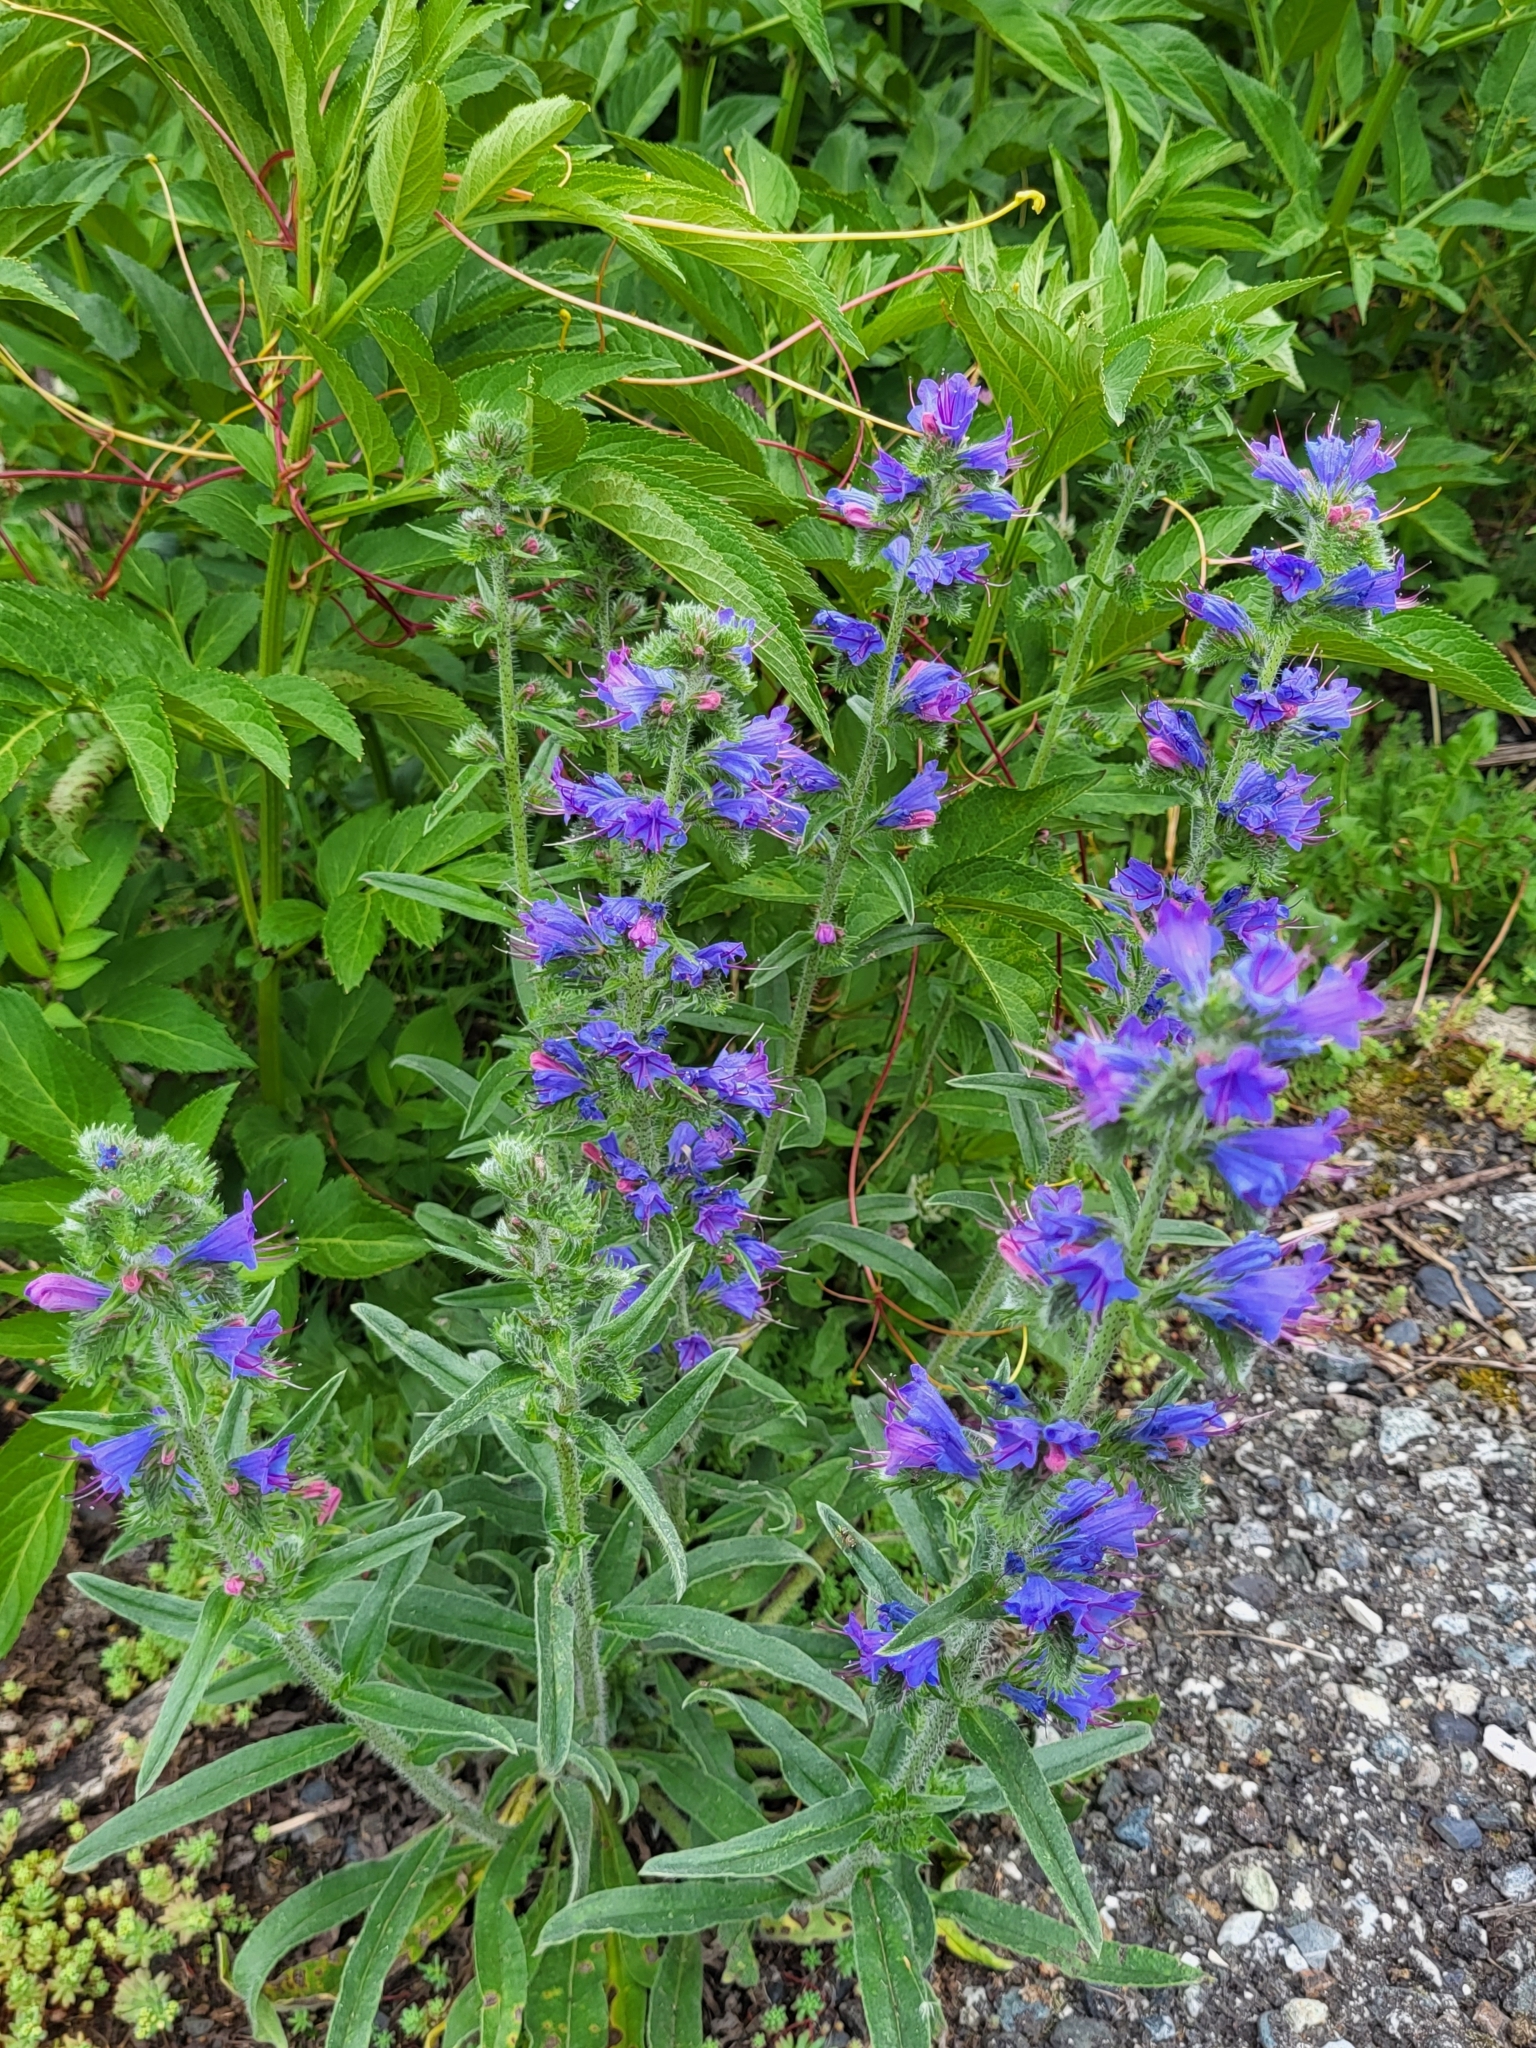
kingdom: Plantae
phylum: Tracheophyta
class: Magnoliopsida
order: Boraginales
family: Boraginaceae
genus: Echium
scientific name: Echium vulgare
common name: Common viper's bugloss
